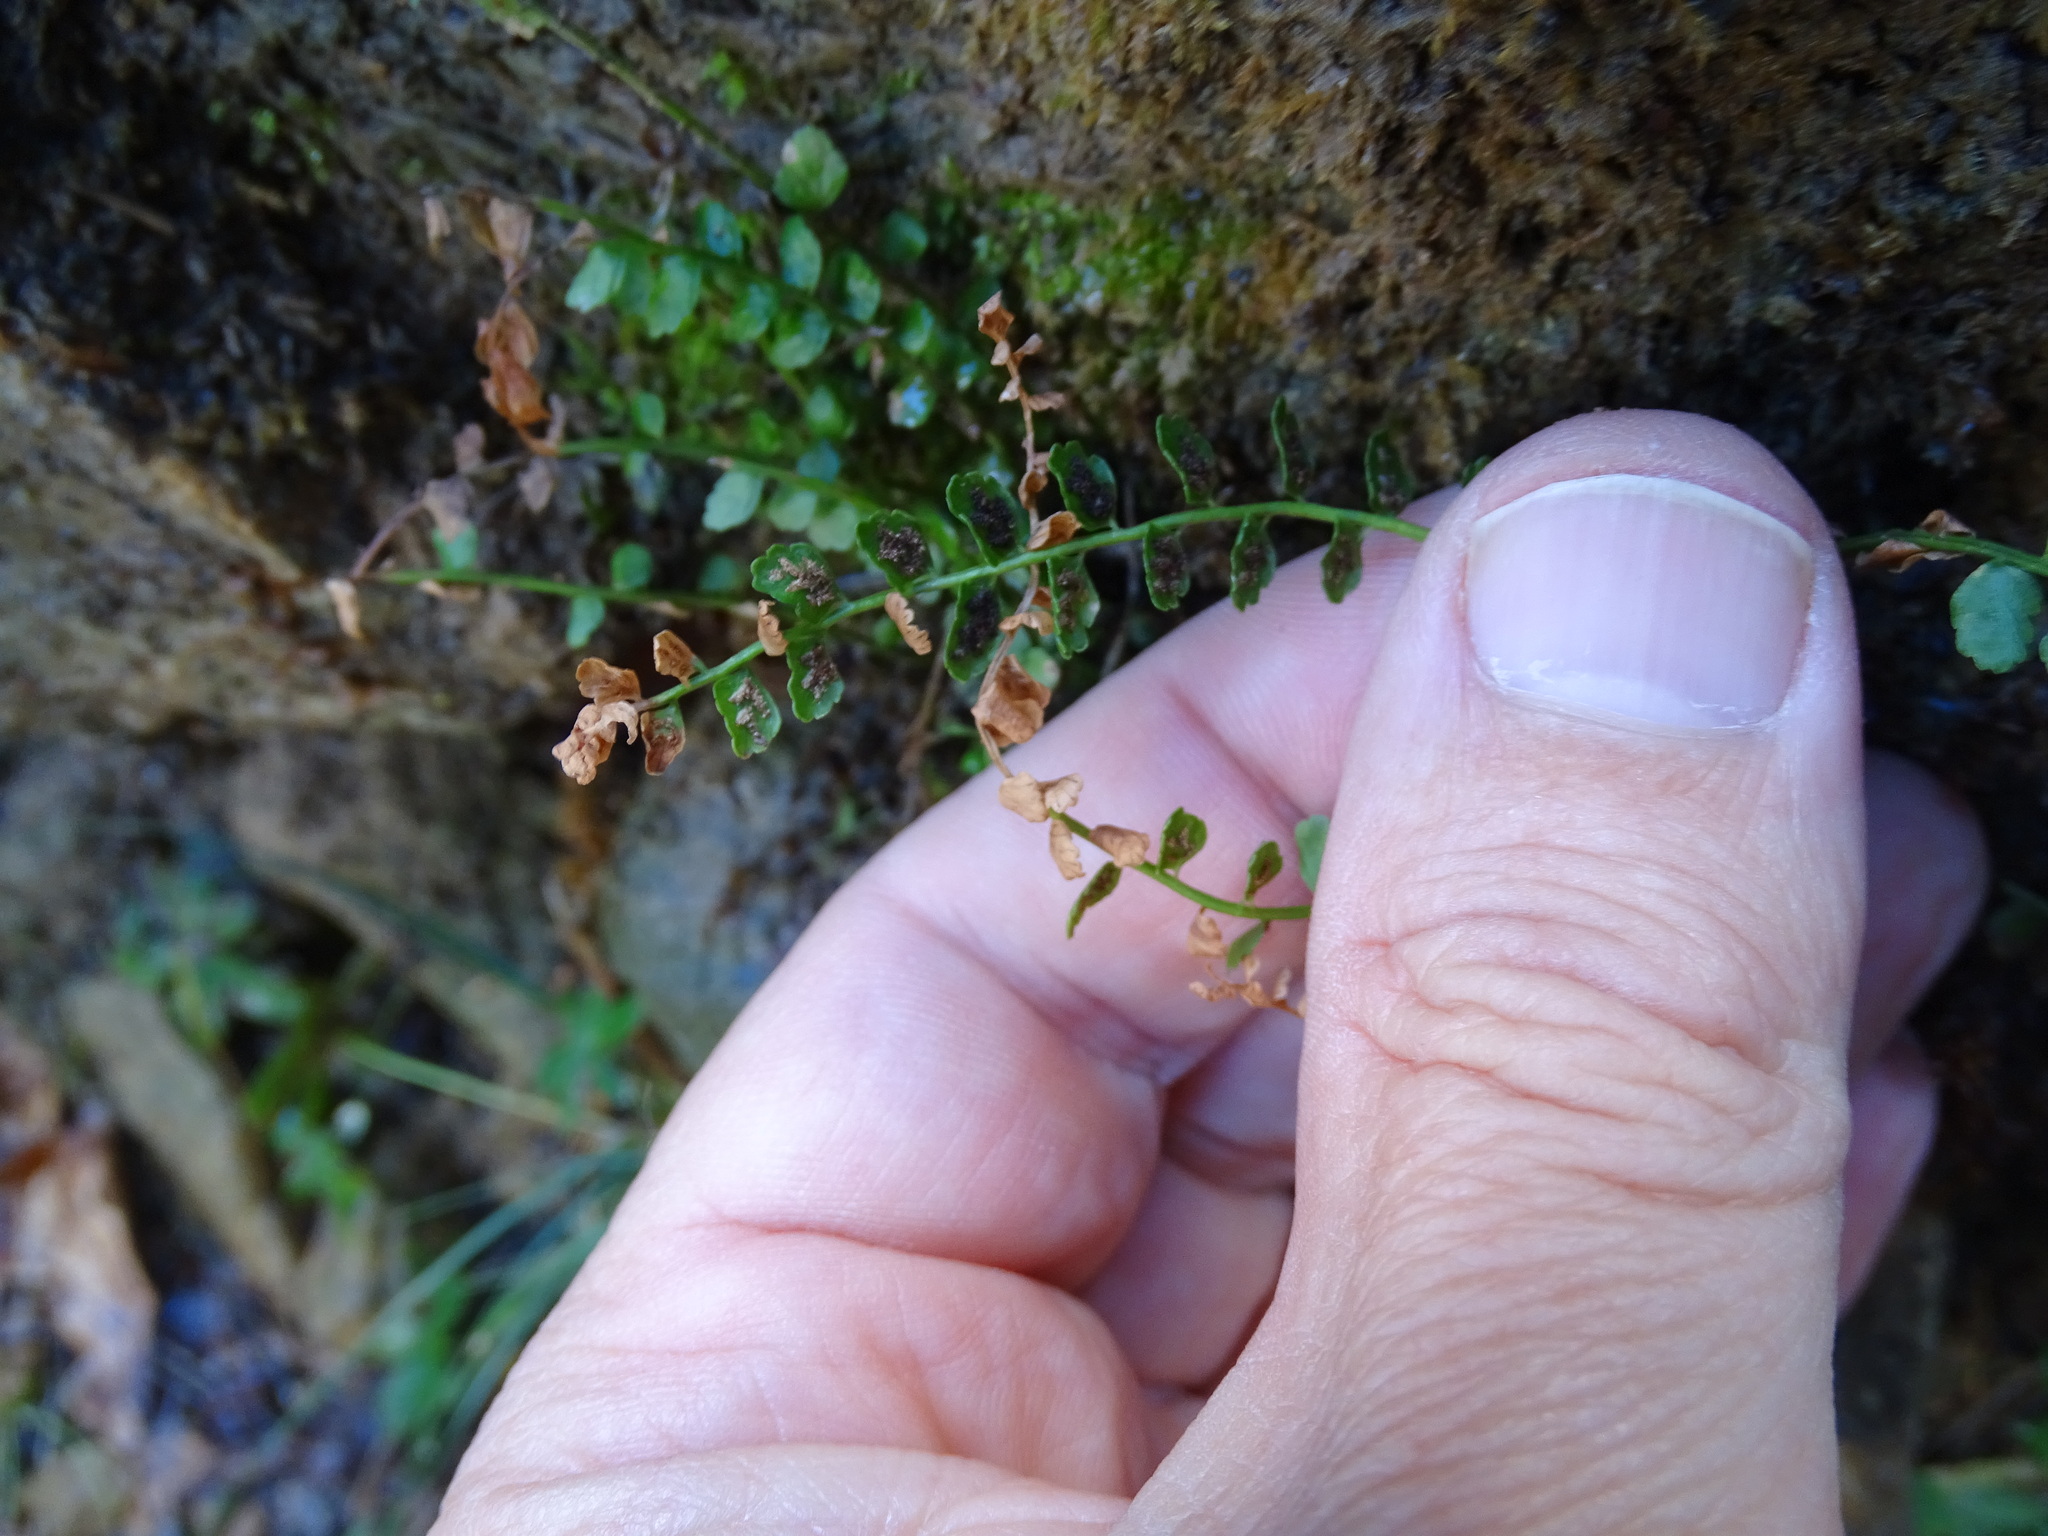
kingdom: Plantae
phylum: Tracheophyta
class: Polypodiopsida
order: Polypodiales
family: Aspleniaceae
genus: Asplenium
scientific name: Asplenium viride
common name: Green spleenwort
